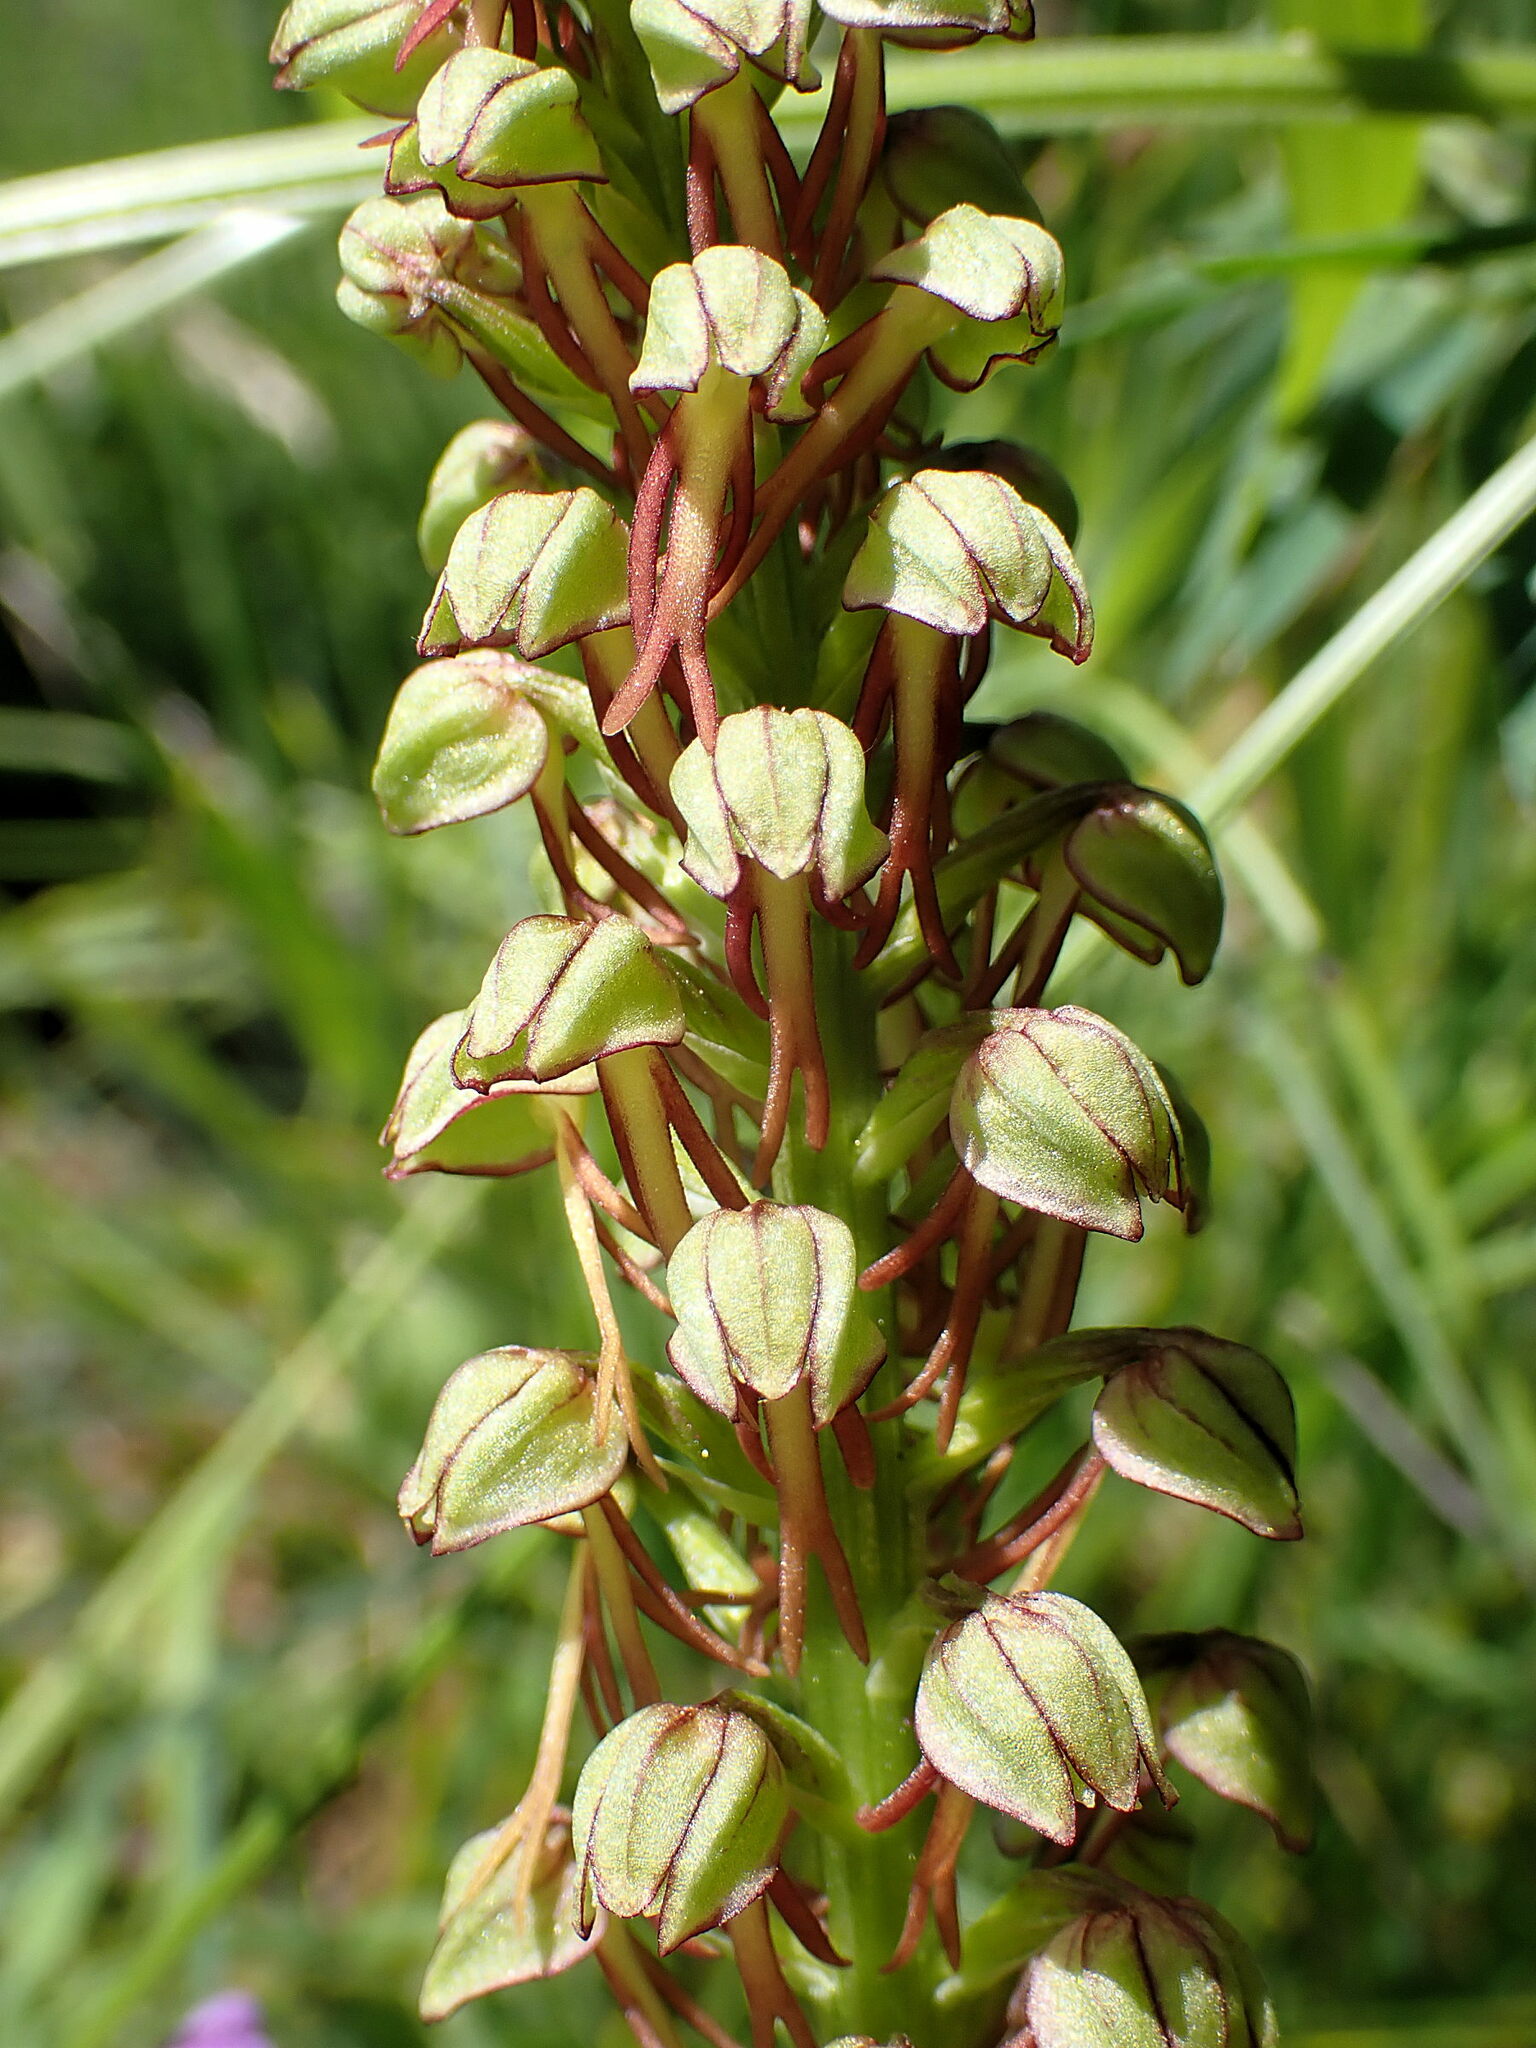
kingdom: Plantae
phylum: Tracheophyta
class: Liliopsida
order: Asparagales
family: Orchidaceae
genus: Orchis
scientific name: Orchis anthropophora
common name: Man orchid
